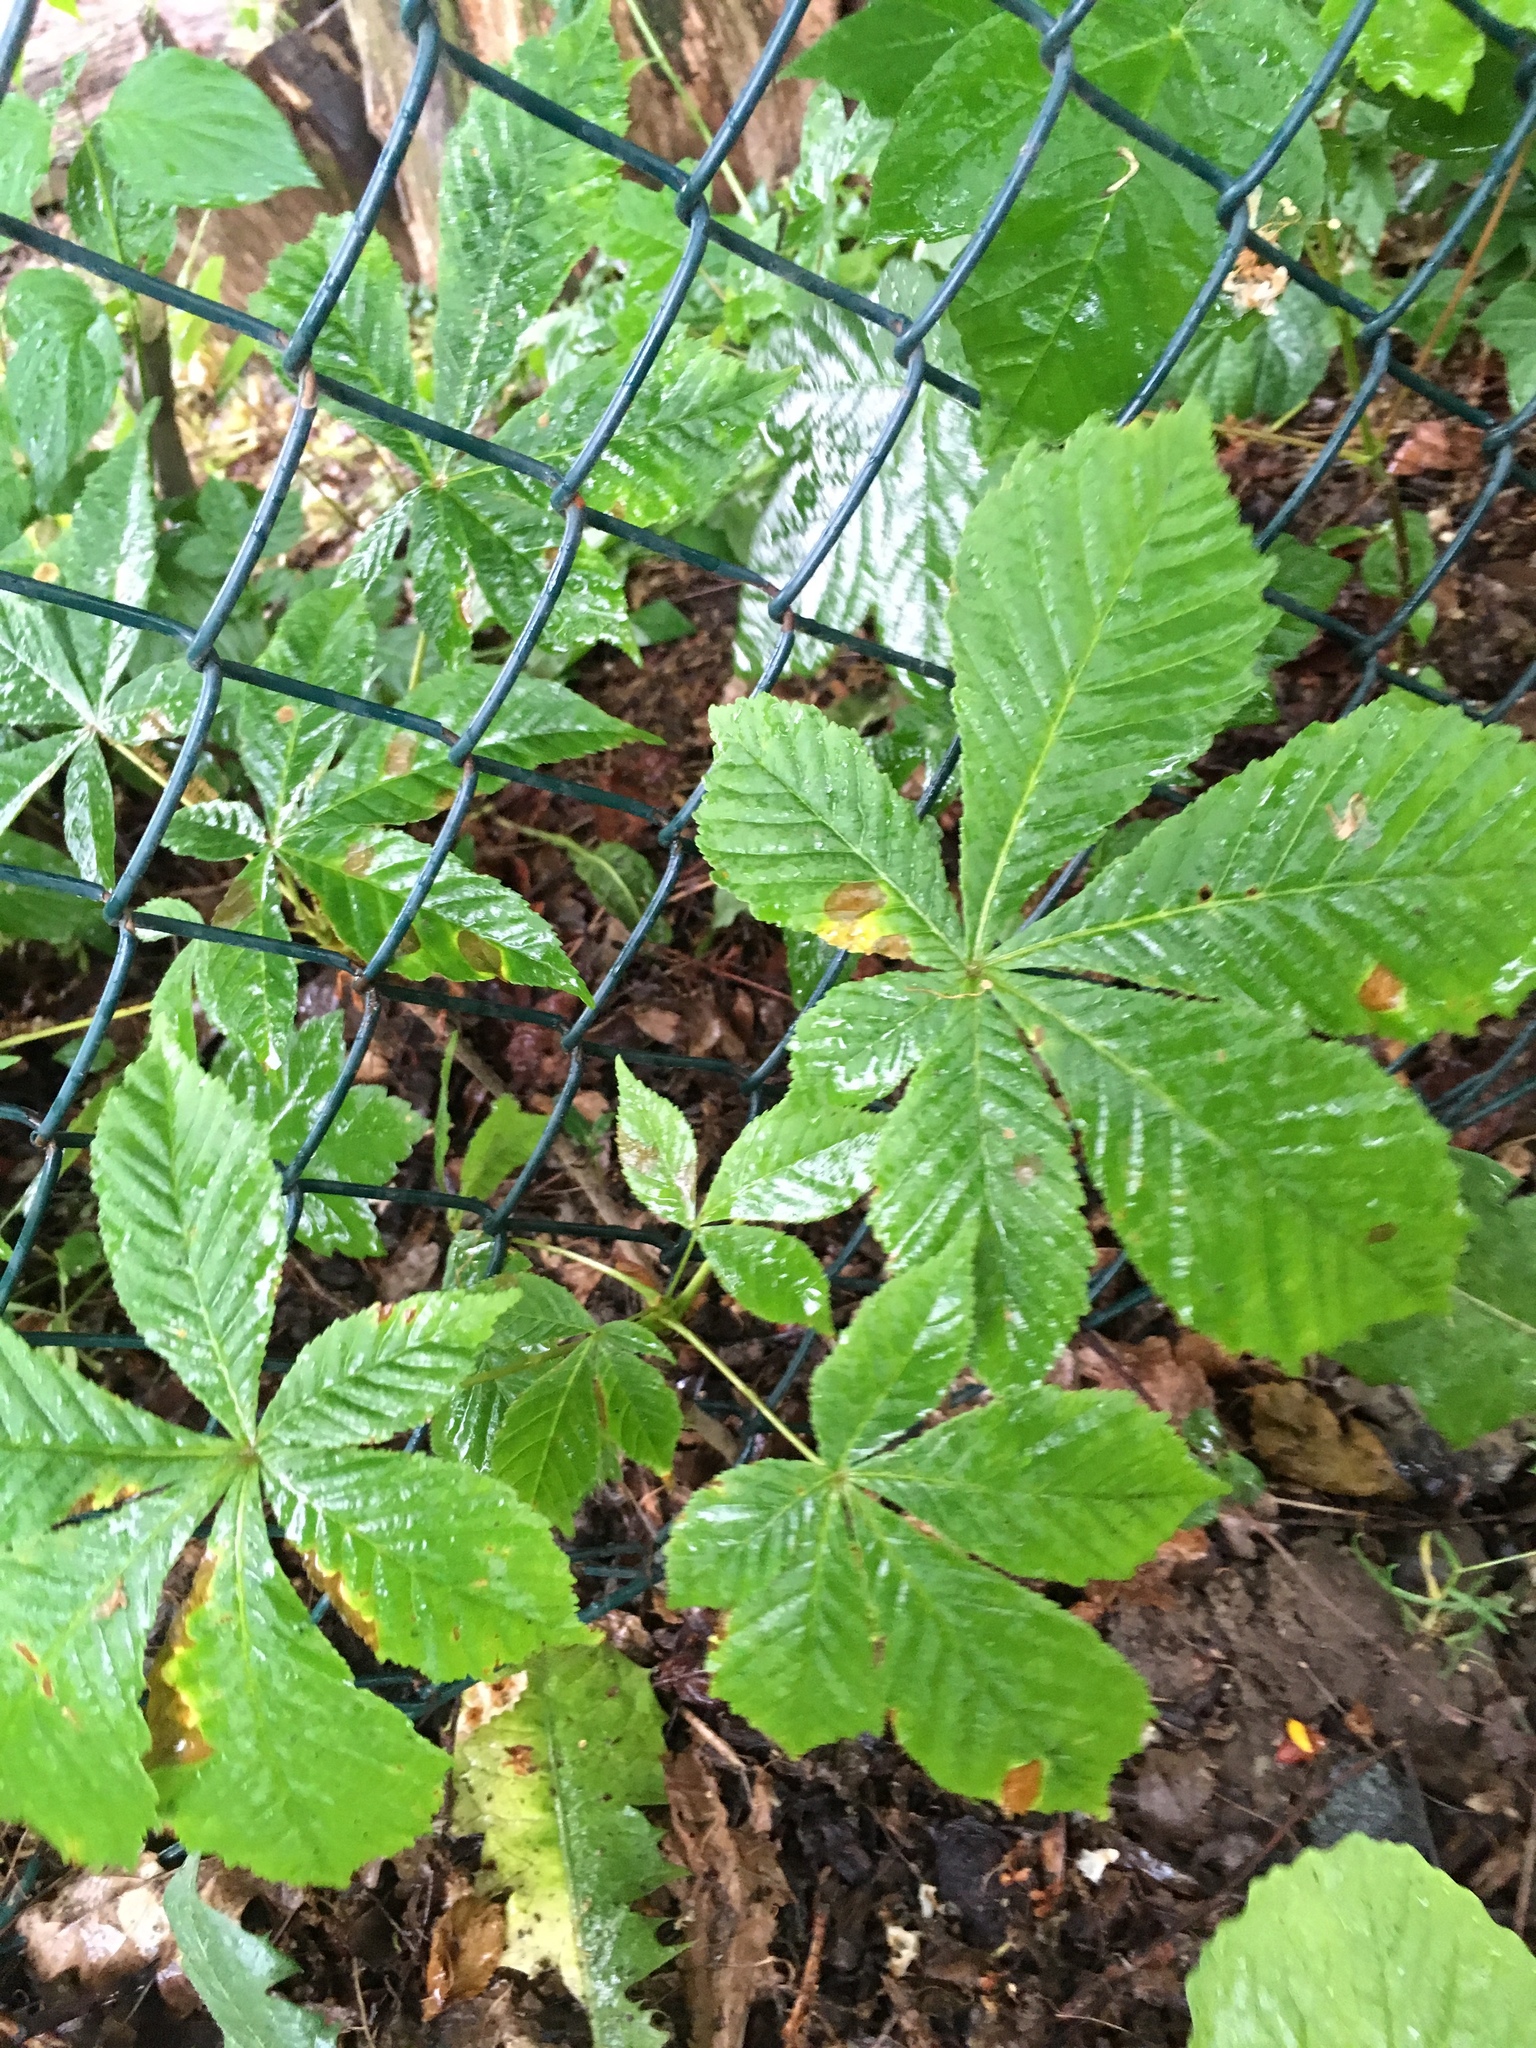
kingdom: Plantae
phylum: Tracheophyta
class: Magnoliopsida
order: Sapindales
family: Sapindaceae
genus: Aesculus
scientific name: Aesculus hippocastanum
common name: Horse-chestnut
